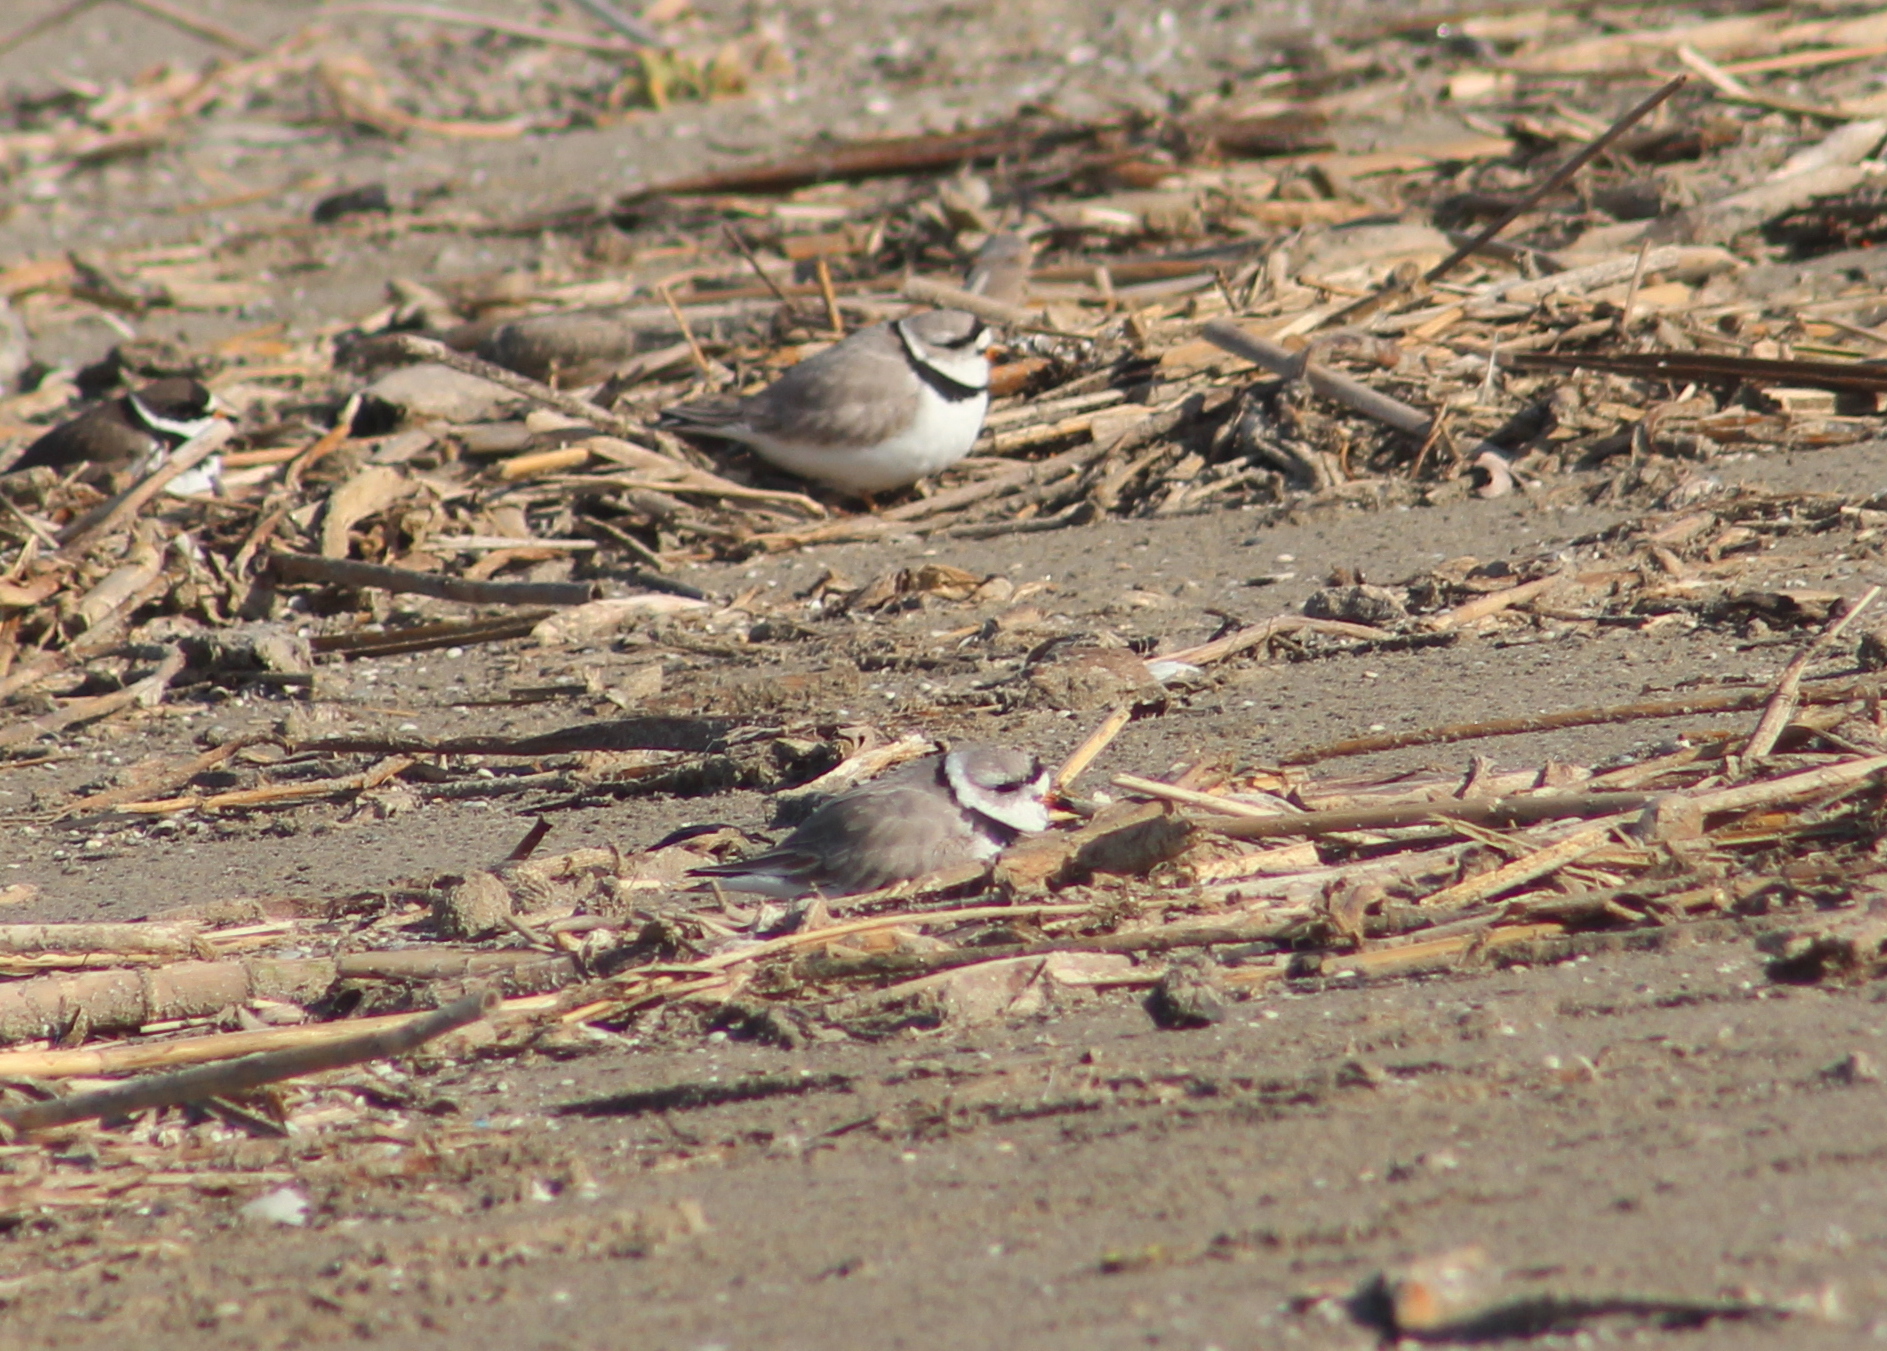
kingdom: Animalia
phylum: Chordata
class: Aves
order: Charadriiformes
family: Charadriidae
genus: Charadrius
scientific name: Charadrius melodus
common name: Piping plover
